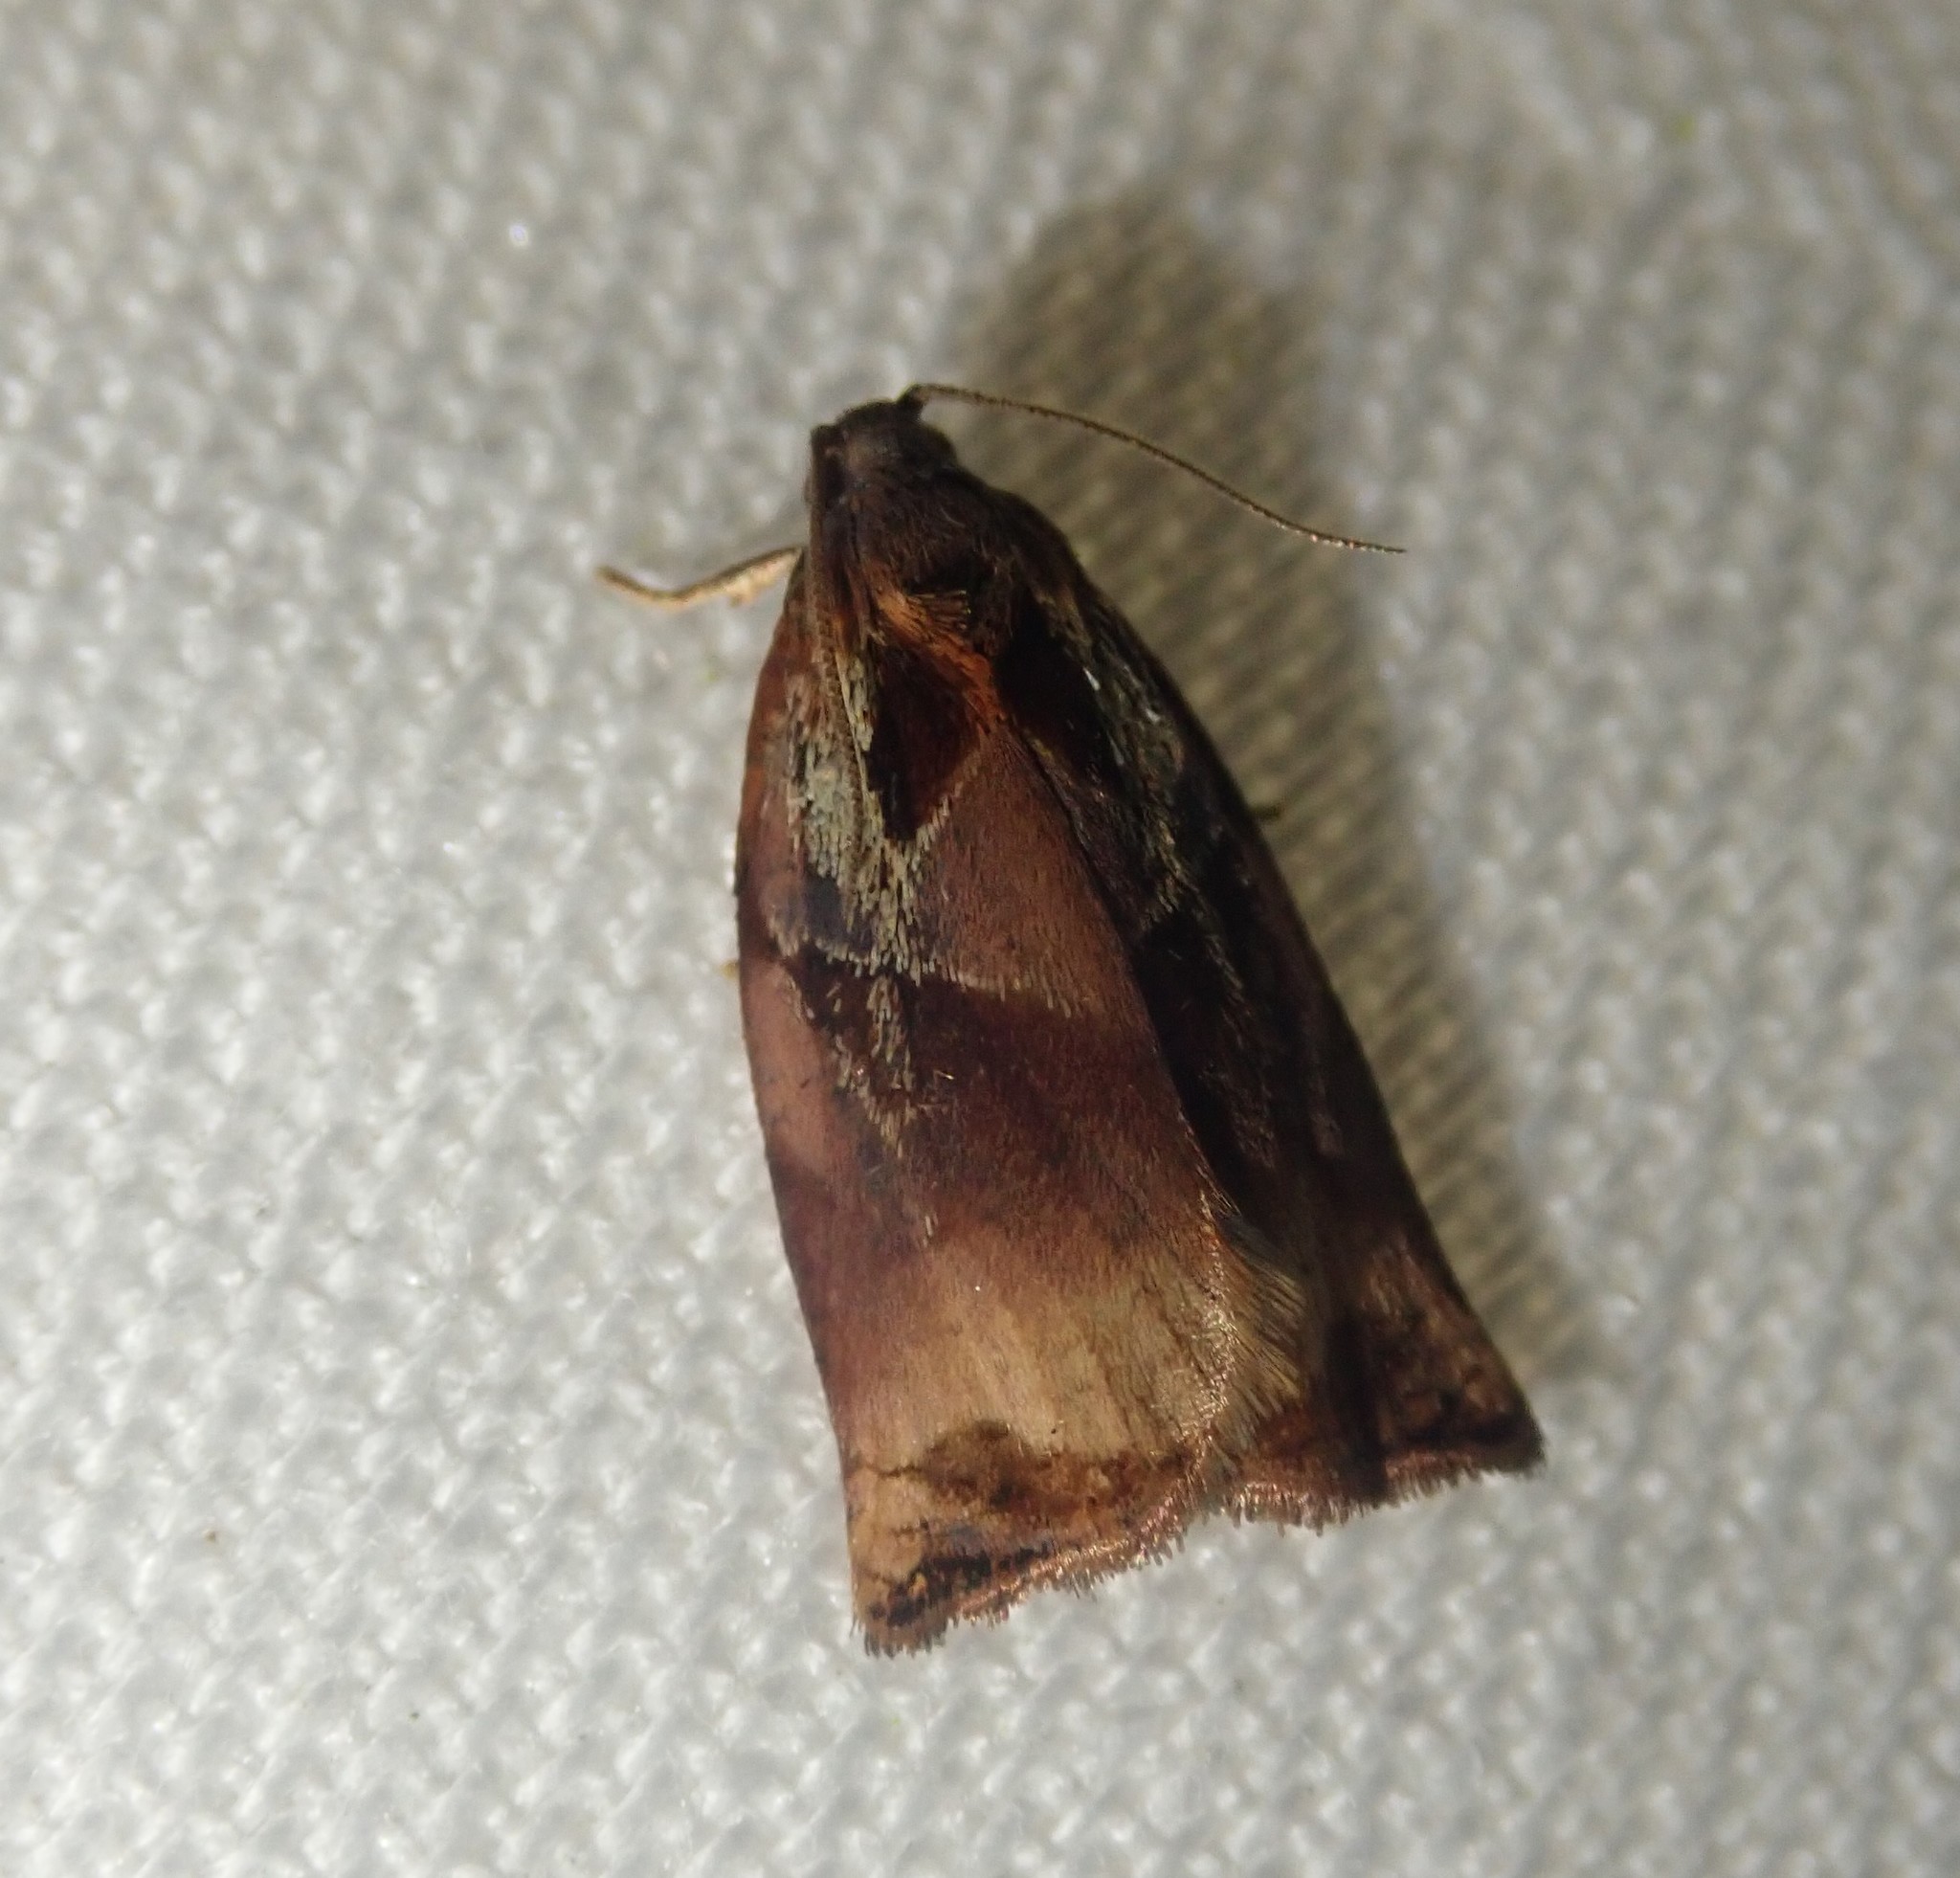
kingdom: Animalia
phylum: Arthropoda
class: Insecta
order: Lepidoptera
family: Tortricidae
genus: Archips
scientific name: Archips podana
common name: Large fruit-tree tortrix
